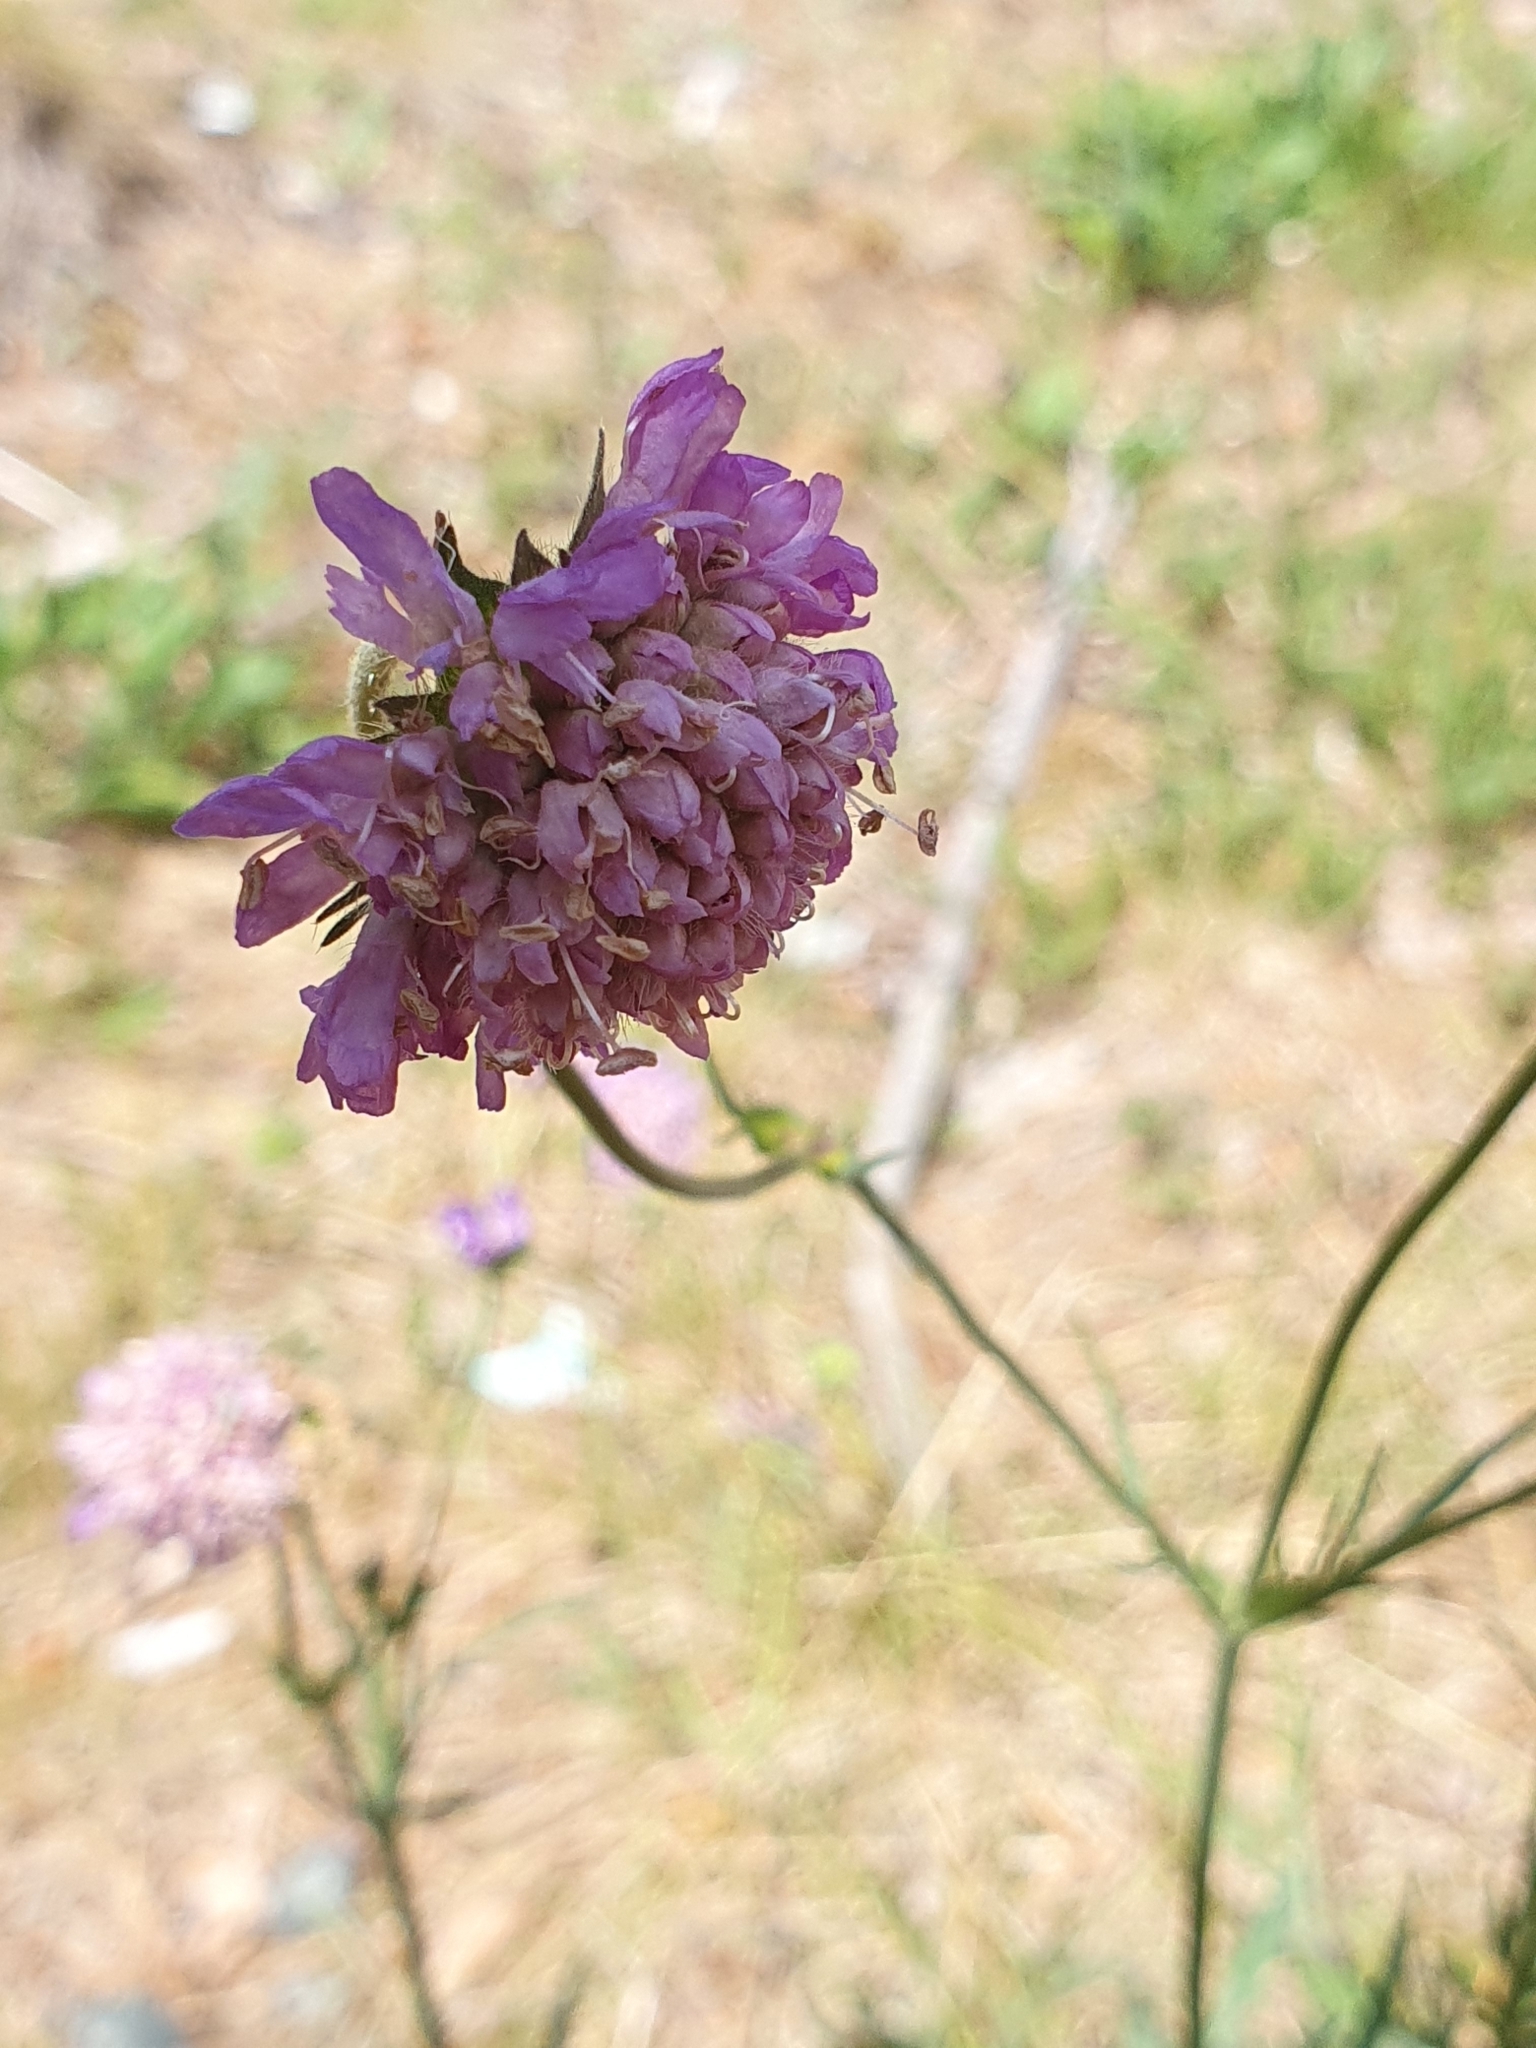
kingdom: Plantae
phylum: Tracheophyta
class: Magnoliopsida
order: Dipsacales
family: Caprifoliaceae
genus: Knautia
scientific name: Knautia arvensis
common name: Field scabiosa
